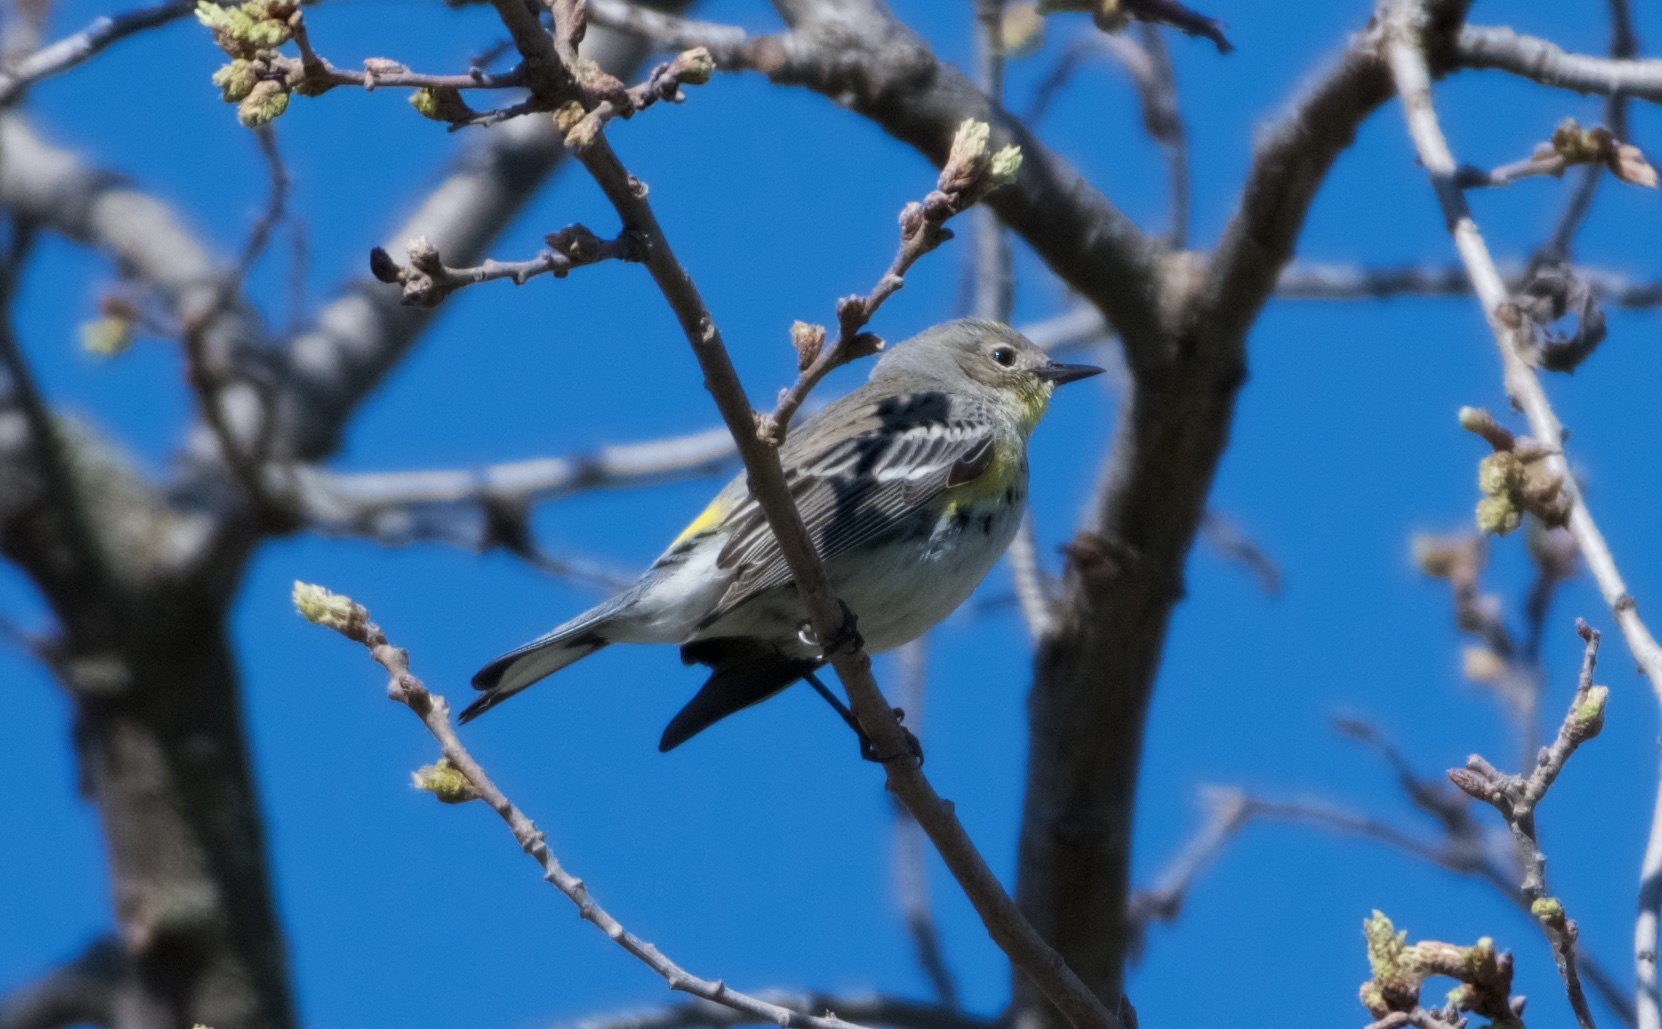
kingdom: Animalia
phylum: Chordata
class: Aves
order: Passeriformes
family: Parulidae
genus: Setophaga
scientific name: Setophaga coronata
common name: Myrtle warbler
